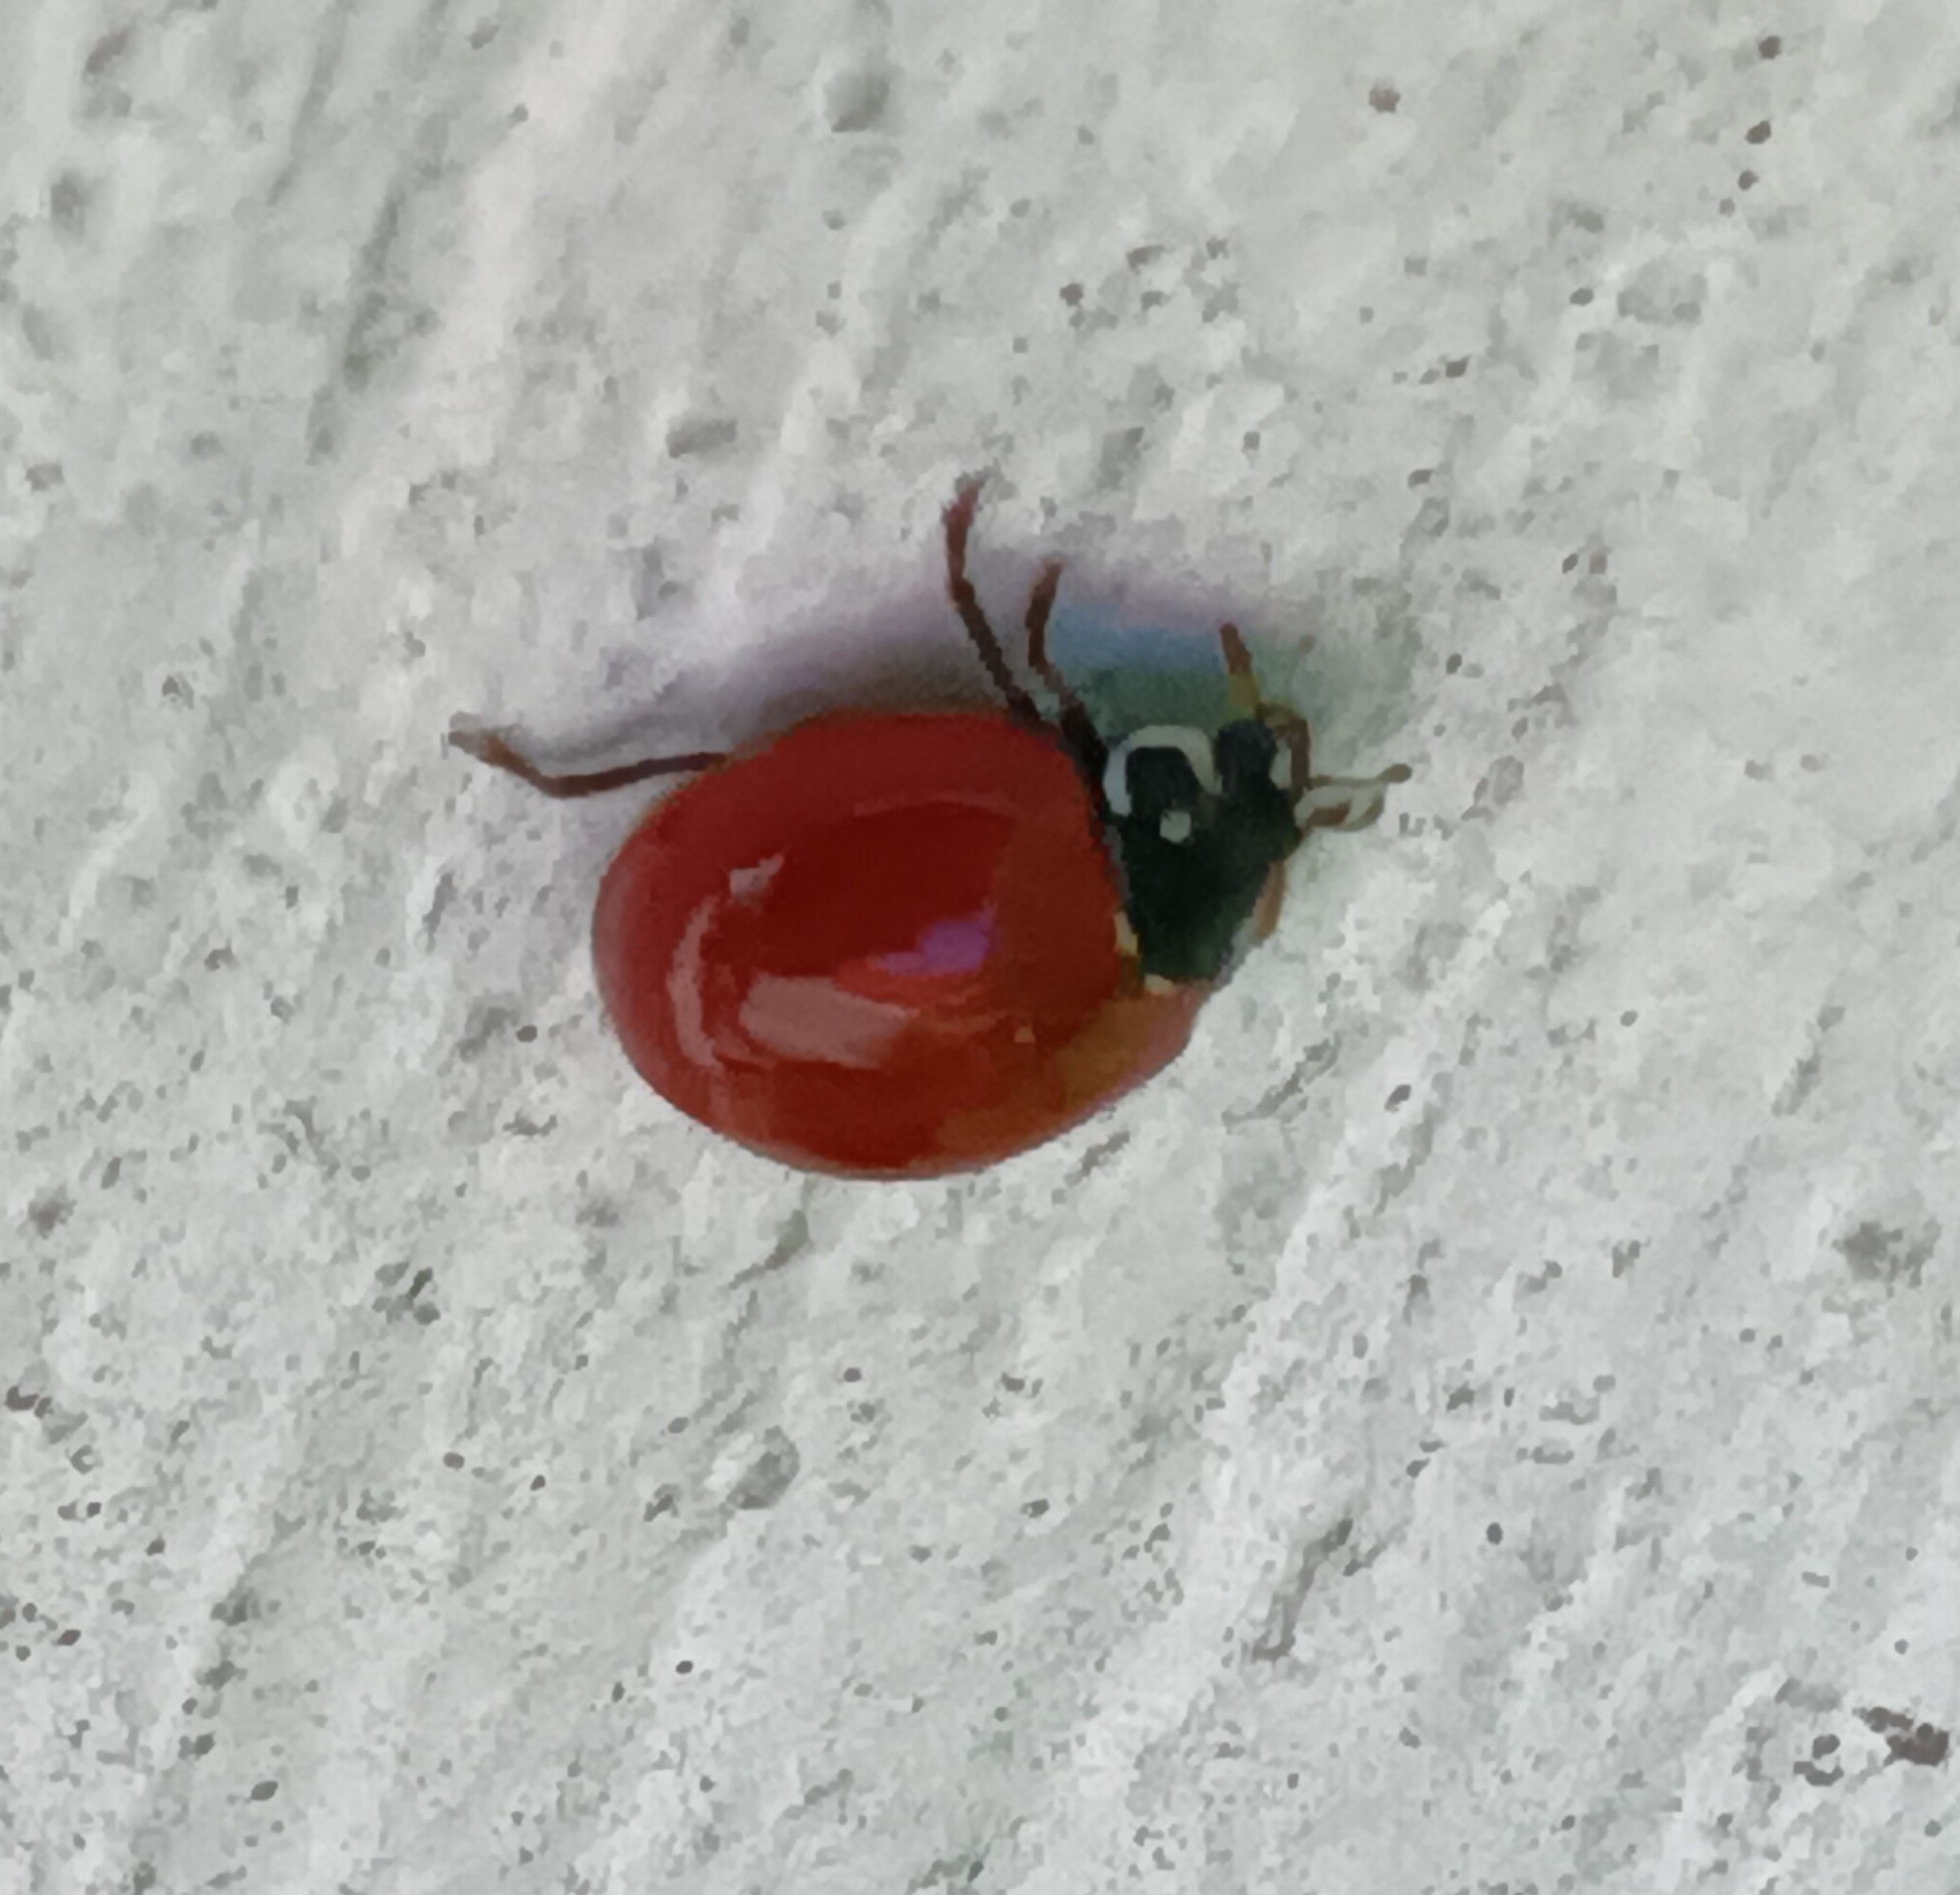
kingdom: Animalia
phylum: Arthropoda
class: Insecta
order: Coleoptera
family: Coccinellidae
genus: Cycloneda
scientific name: Cycloneda sanguinea
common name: Ladybird beetle
